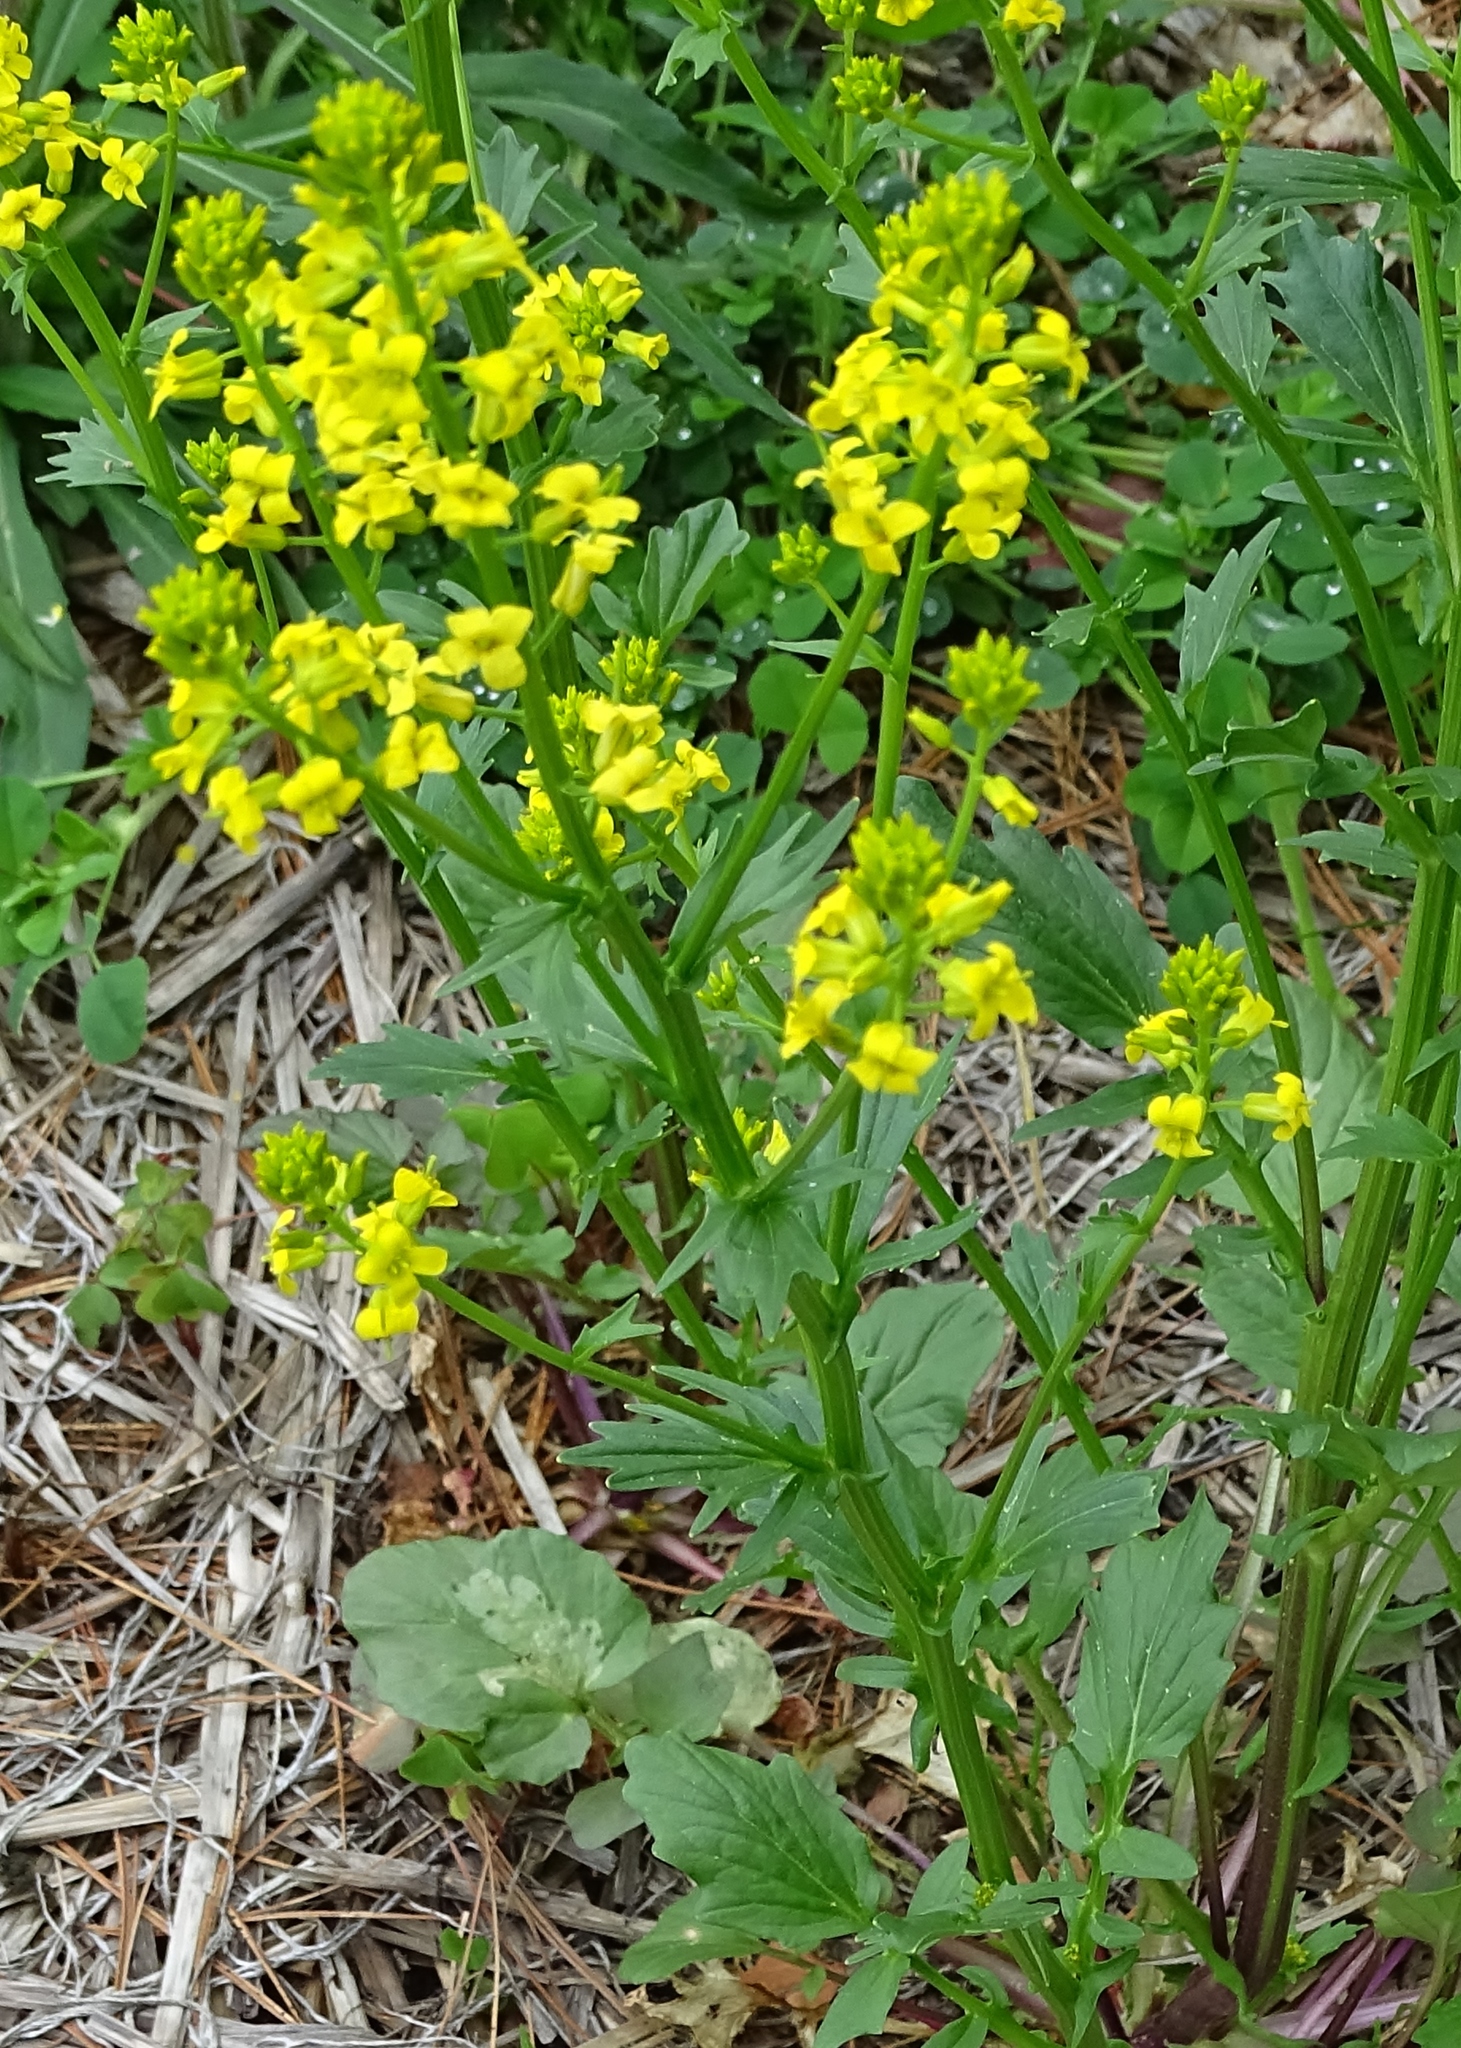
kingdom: Plantae
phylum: Tracheophyta
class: Magnoliopsida
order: Brassicales
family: Brassicaceae
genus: Barbarea
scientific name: Barbarea vulgaris
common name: Cressy-greens
